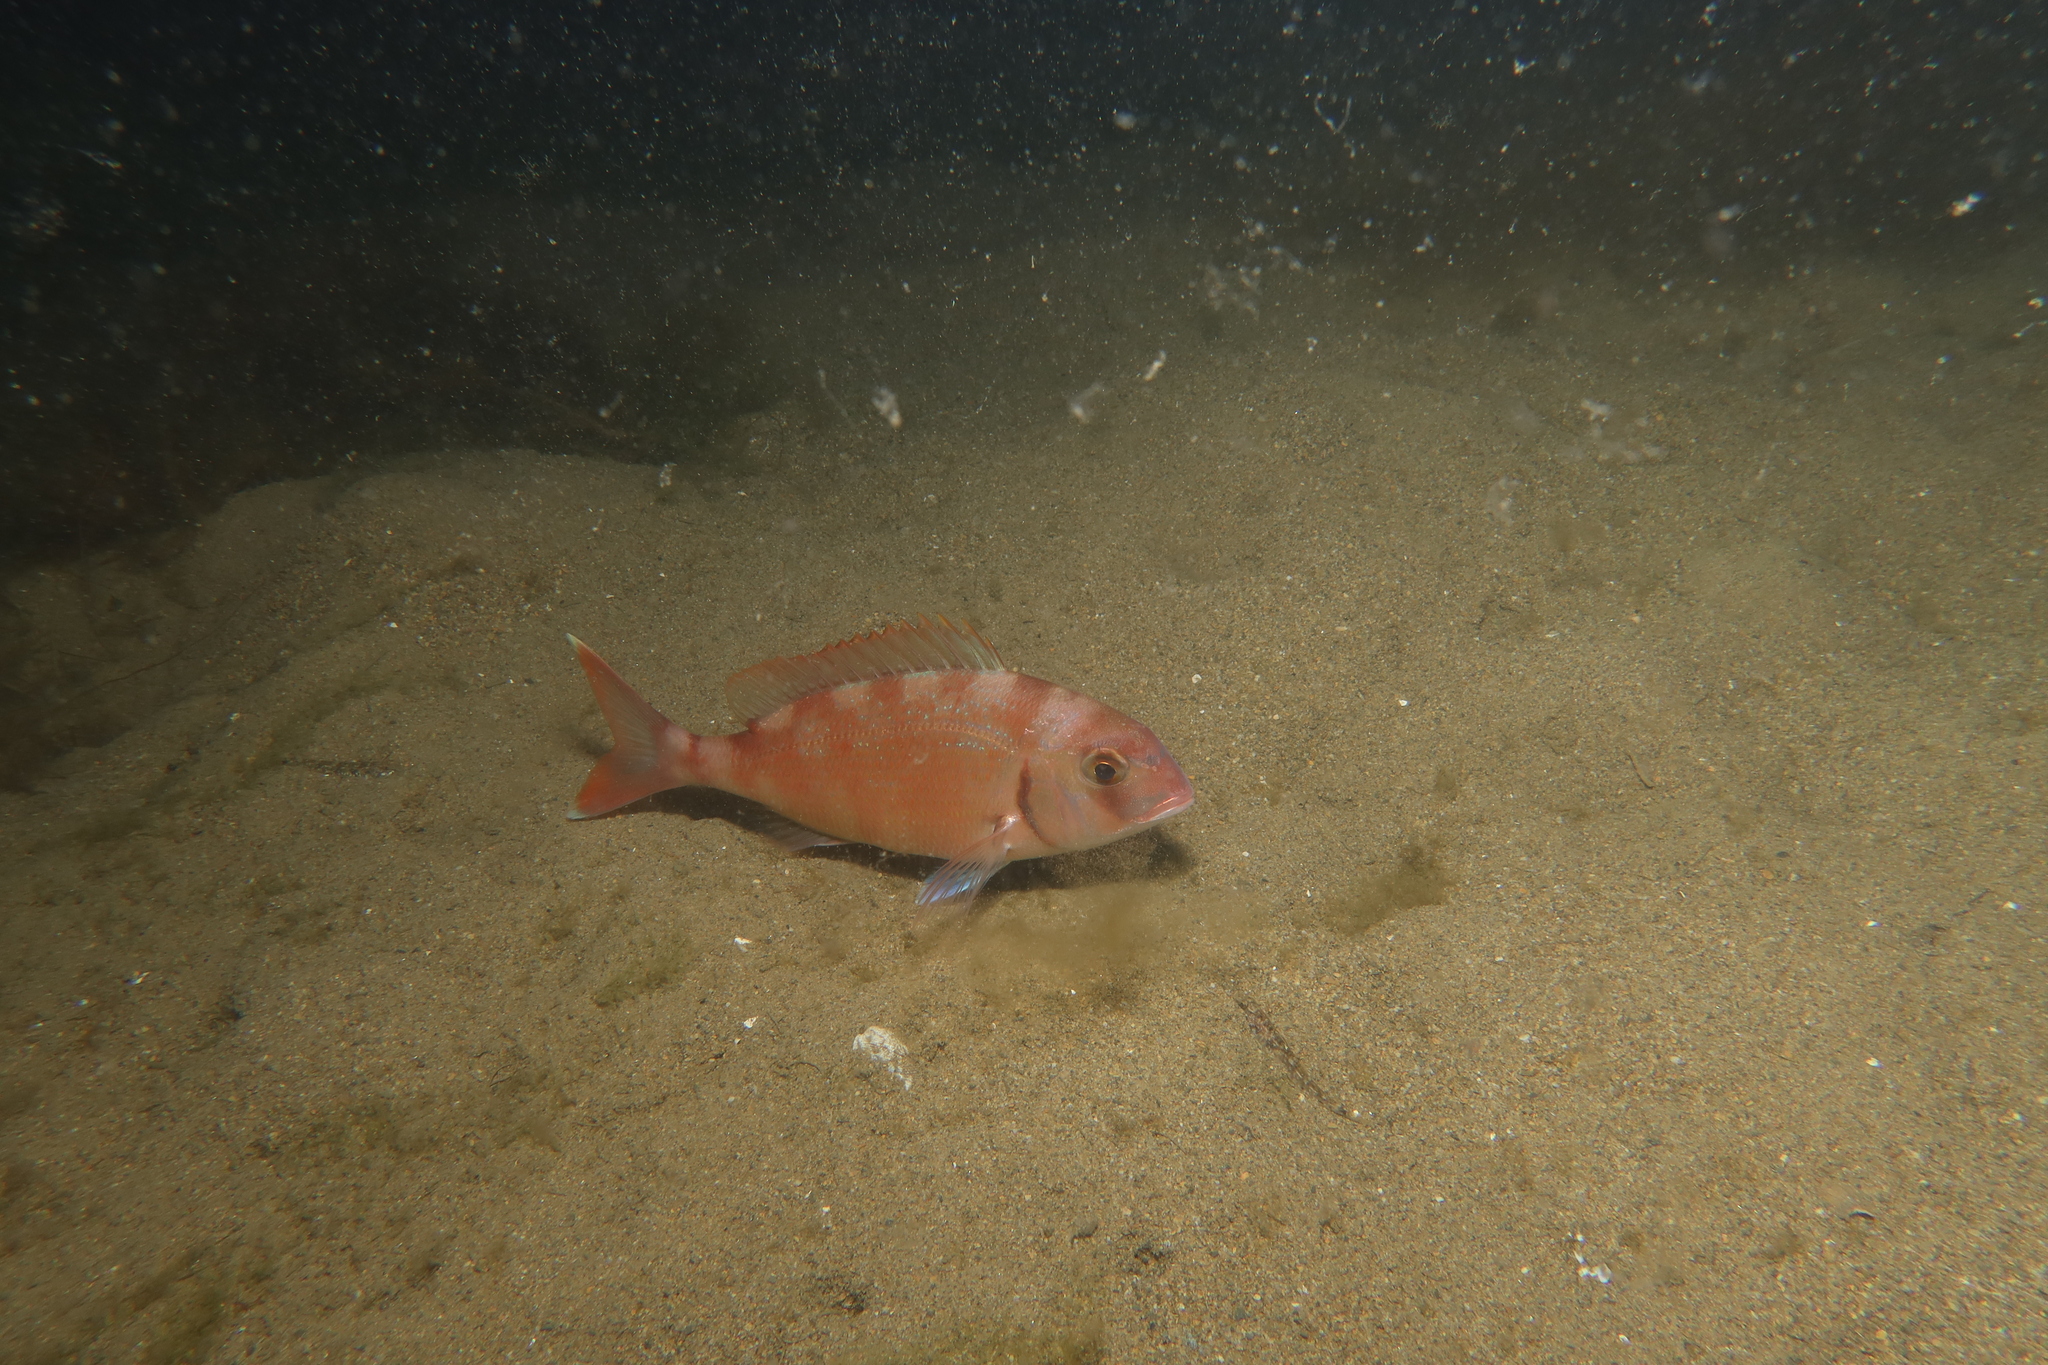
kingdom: Animalia
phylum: Chordata
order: Perciformes
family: Sparidae
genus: Pagrus
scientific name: Pagrus pagrus
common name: Red porgy
